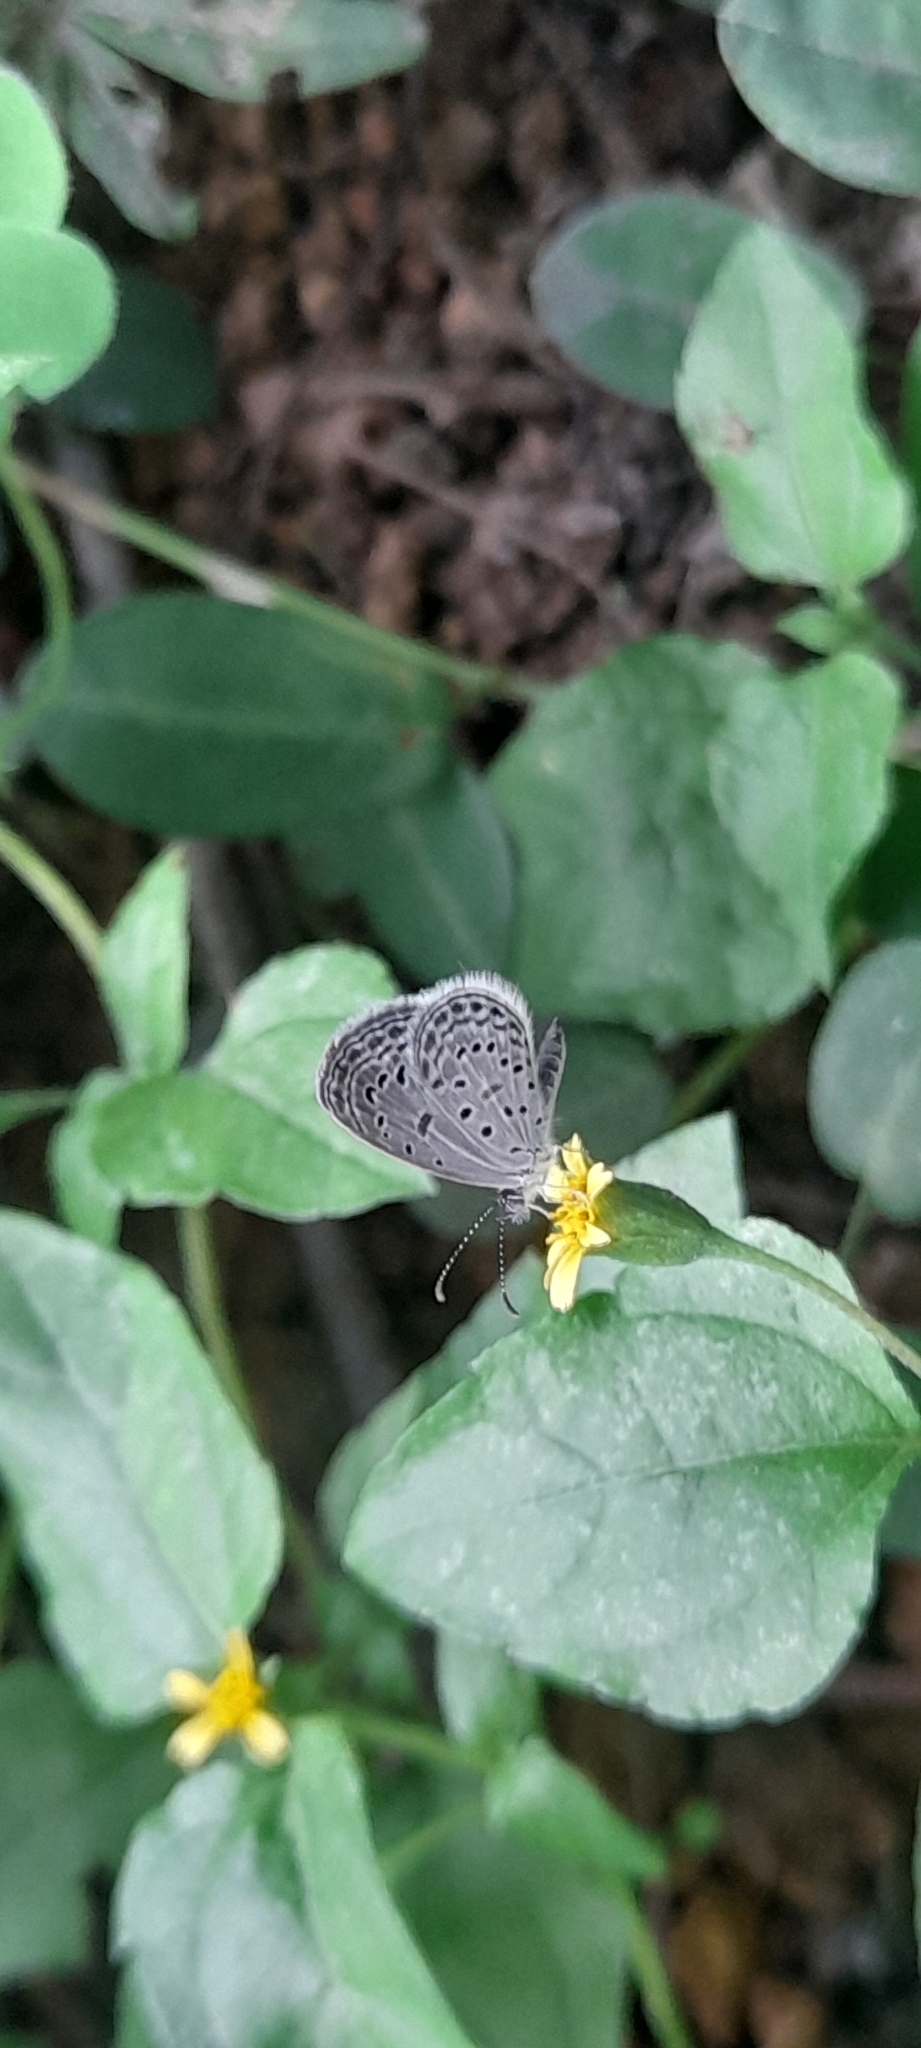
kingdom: Animalia
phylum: Arthropoda
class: Insecta
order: Lepidoptera
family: Lycaenidae
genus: Zizula
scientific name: Zizula hylax
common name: Gaika blue
